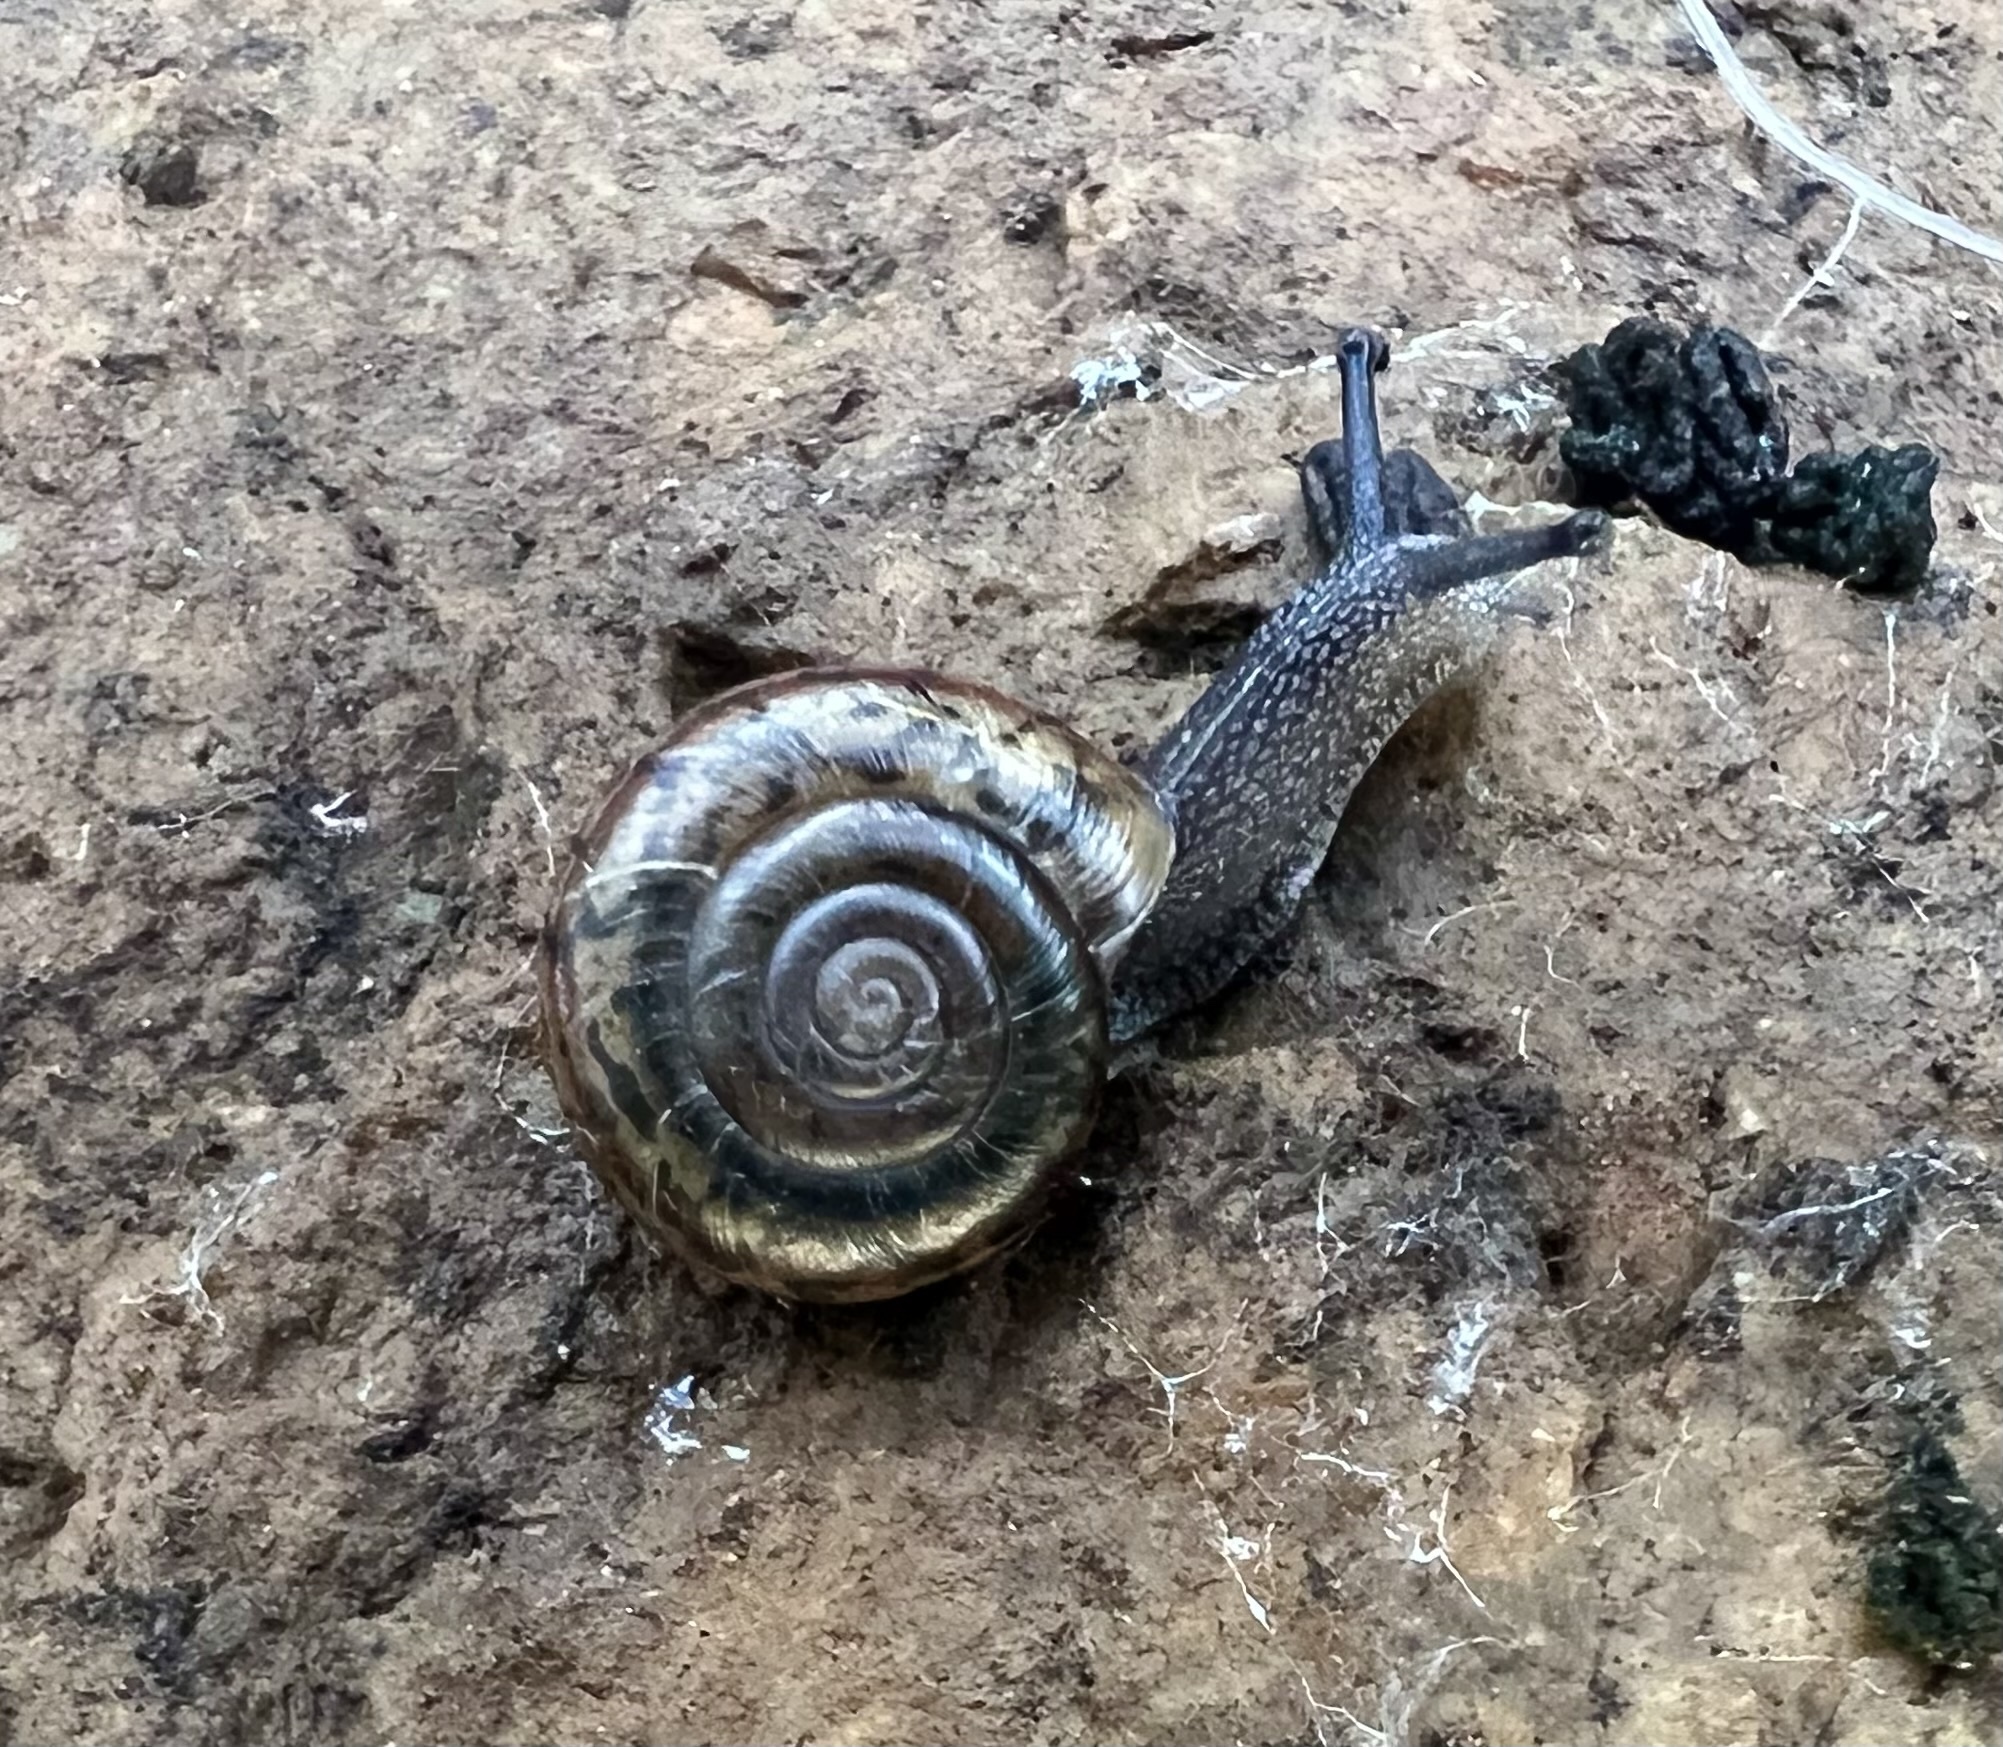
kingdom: Animalia
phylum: Mollusca
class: Gastropoda
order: Stylommatophora
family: Xanthonychidae
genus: Helminthoglypta
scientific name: Helminthoglypta salviae
